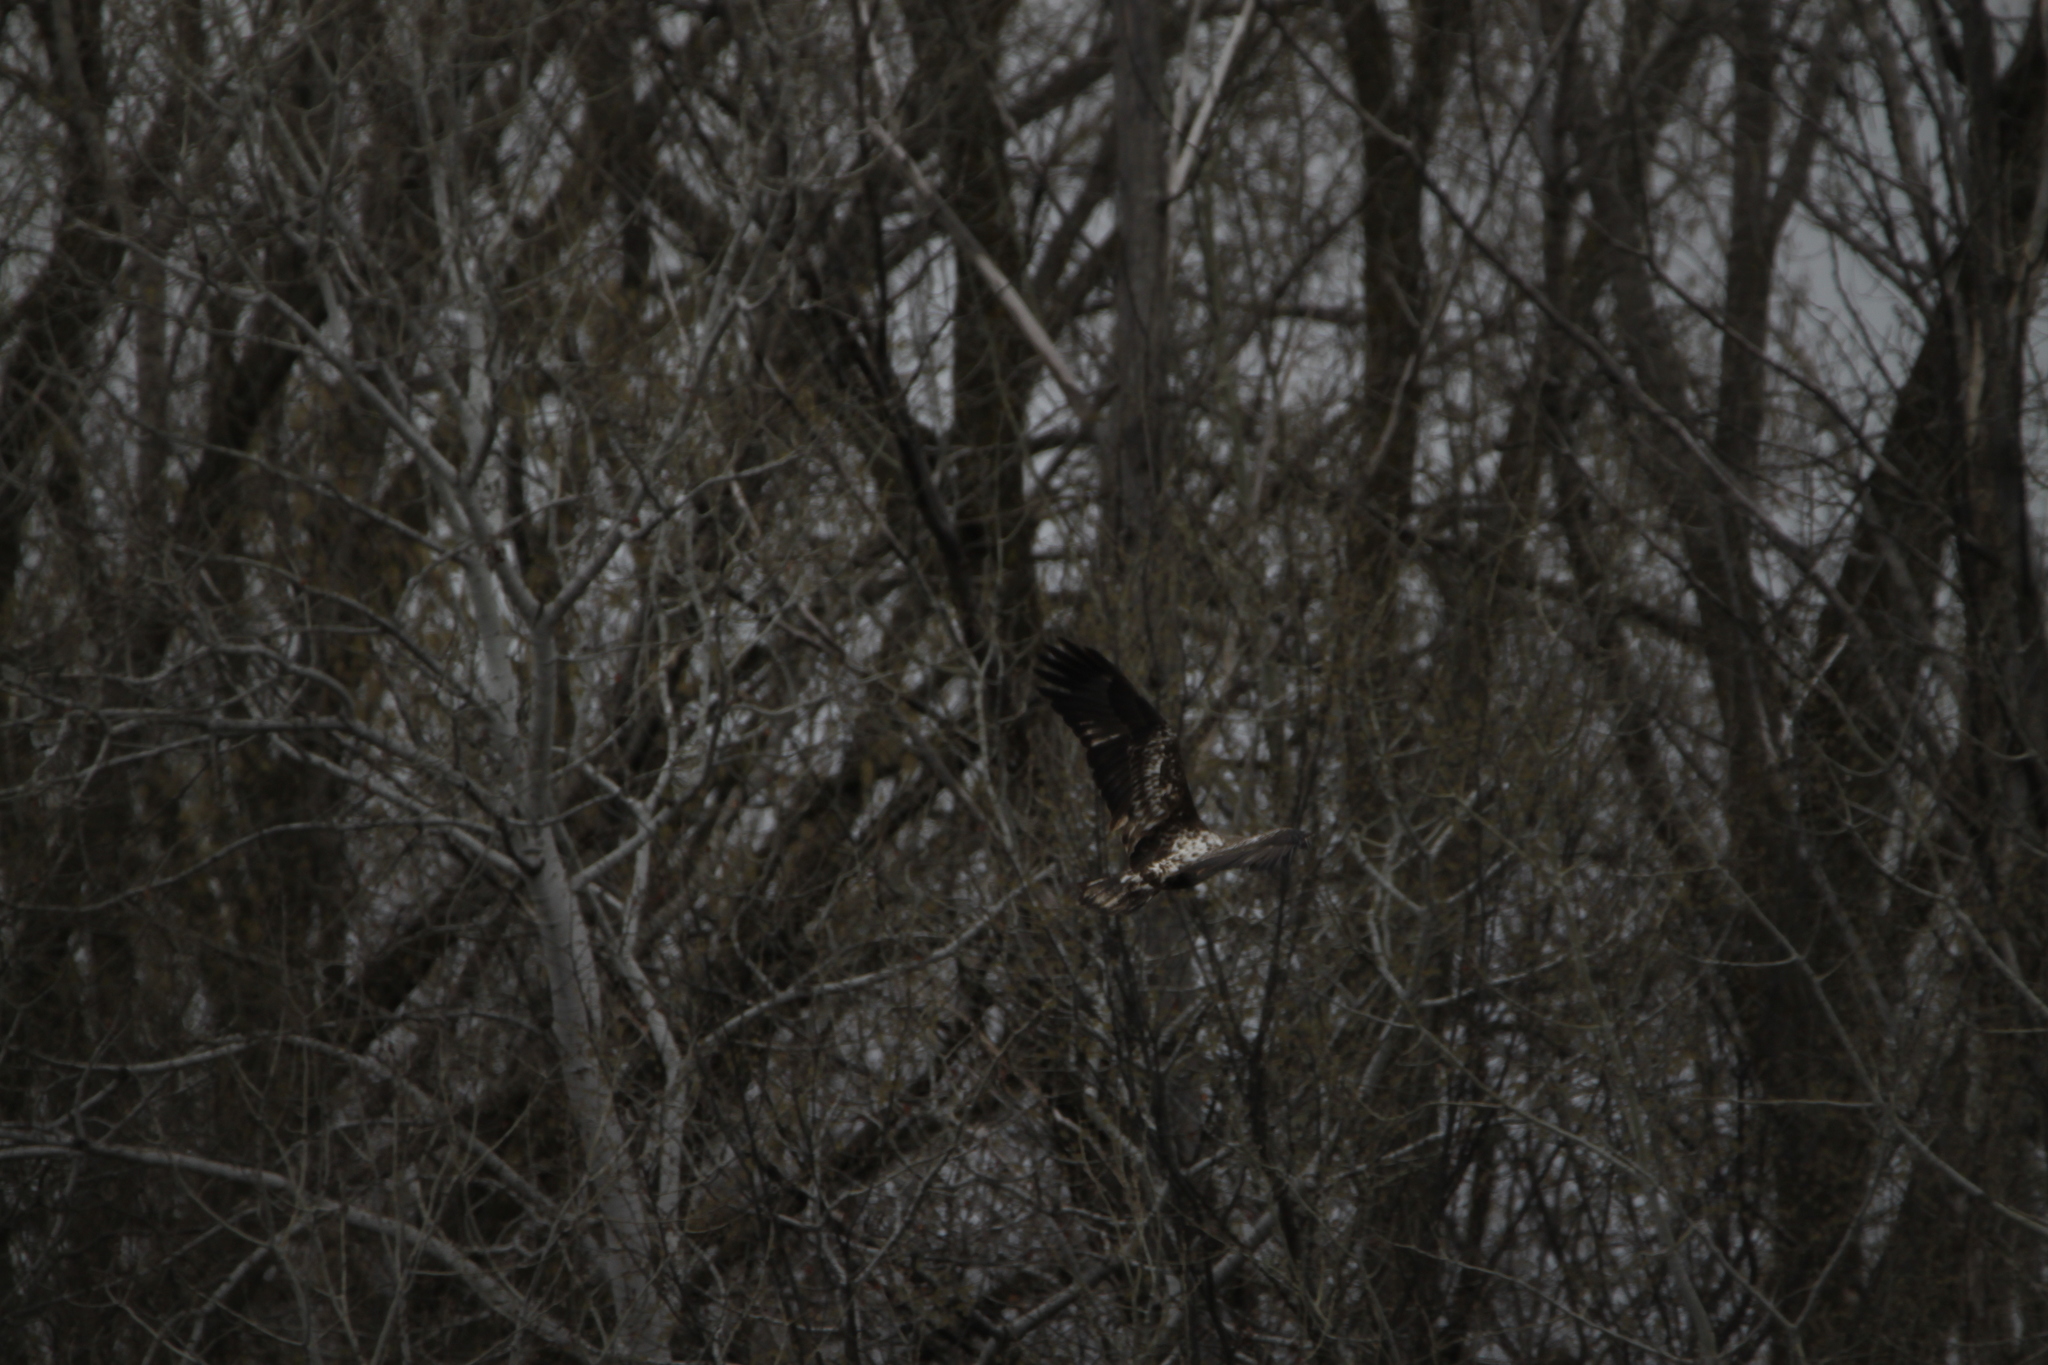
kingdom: Animalia
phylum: Chordata
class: Aves
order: Accipitriformes
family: Accipitridae
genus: Haliaeetus
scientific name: Haliaeetus leucocephalus
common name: Bald eagle
